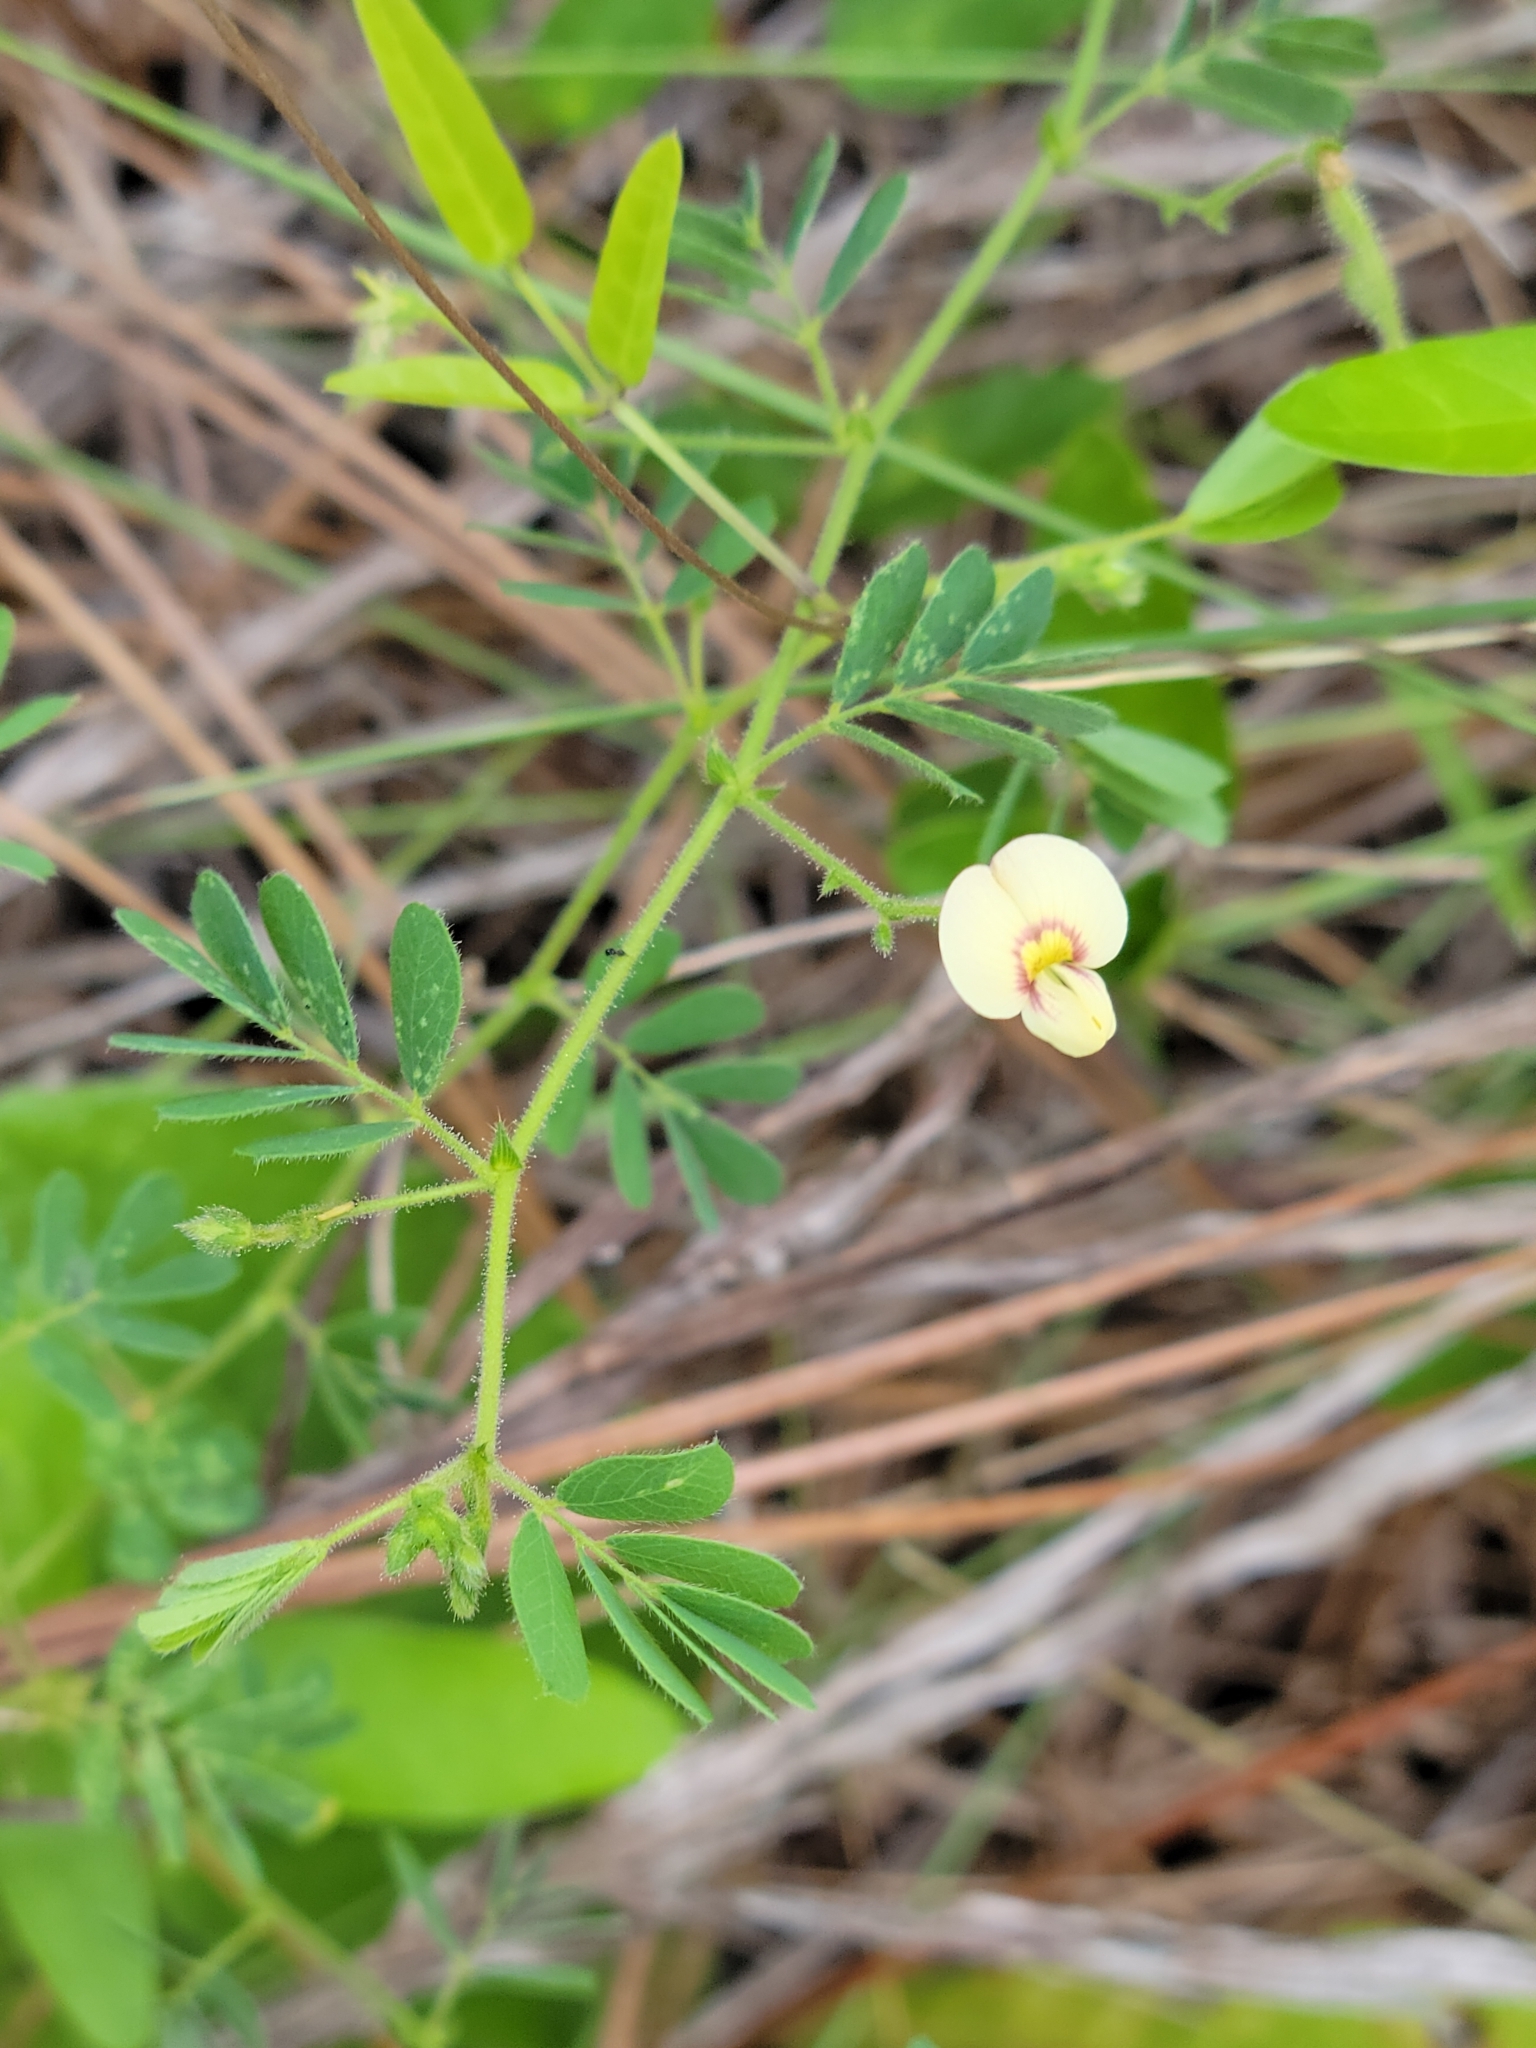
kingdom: Plantae
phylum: Tracheophyta
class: Magnoliopsida
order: Fabales
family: Fabaceae
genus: Ctenodon
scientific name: Ctenodon viscidulus
